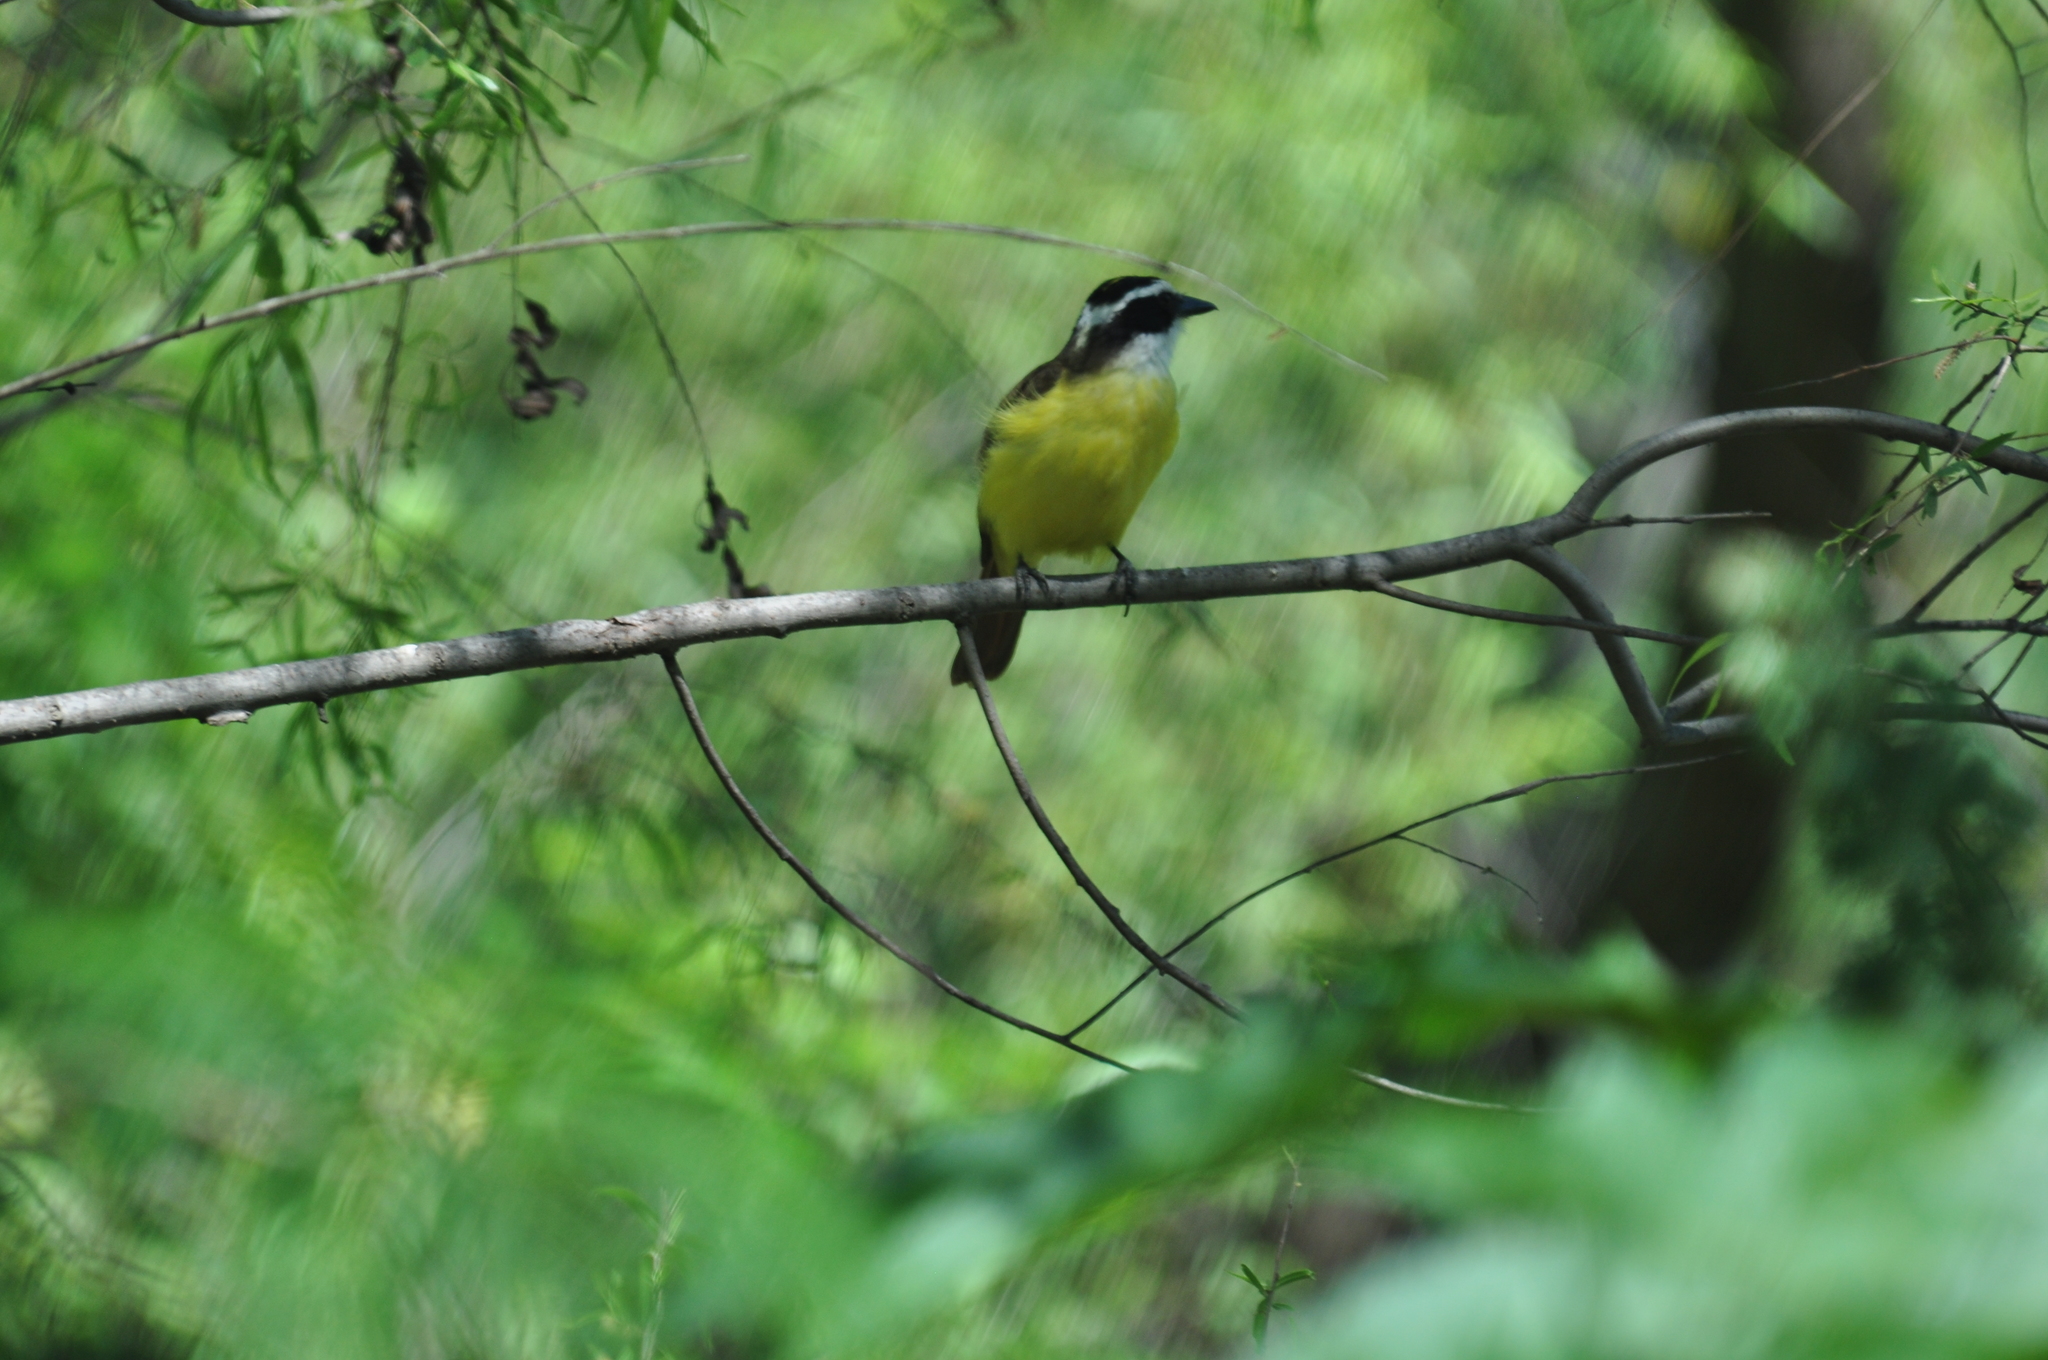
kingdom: Animalia
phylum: Chordata
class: Aves
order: Passeriformes
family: Tyrannidae
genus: Pitangus
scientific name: Pitangus sulphuratus
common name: Great kiskadee
